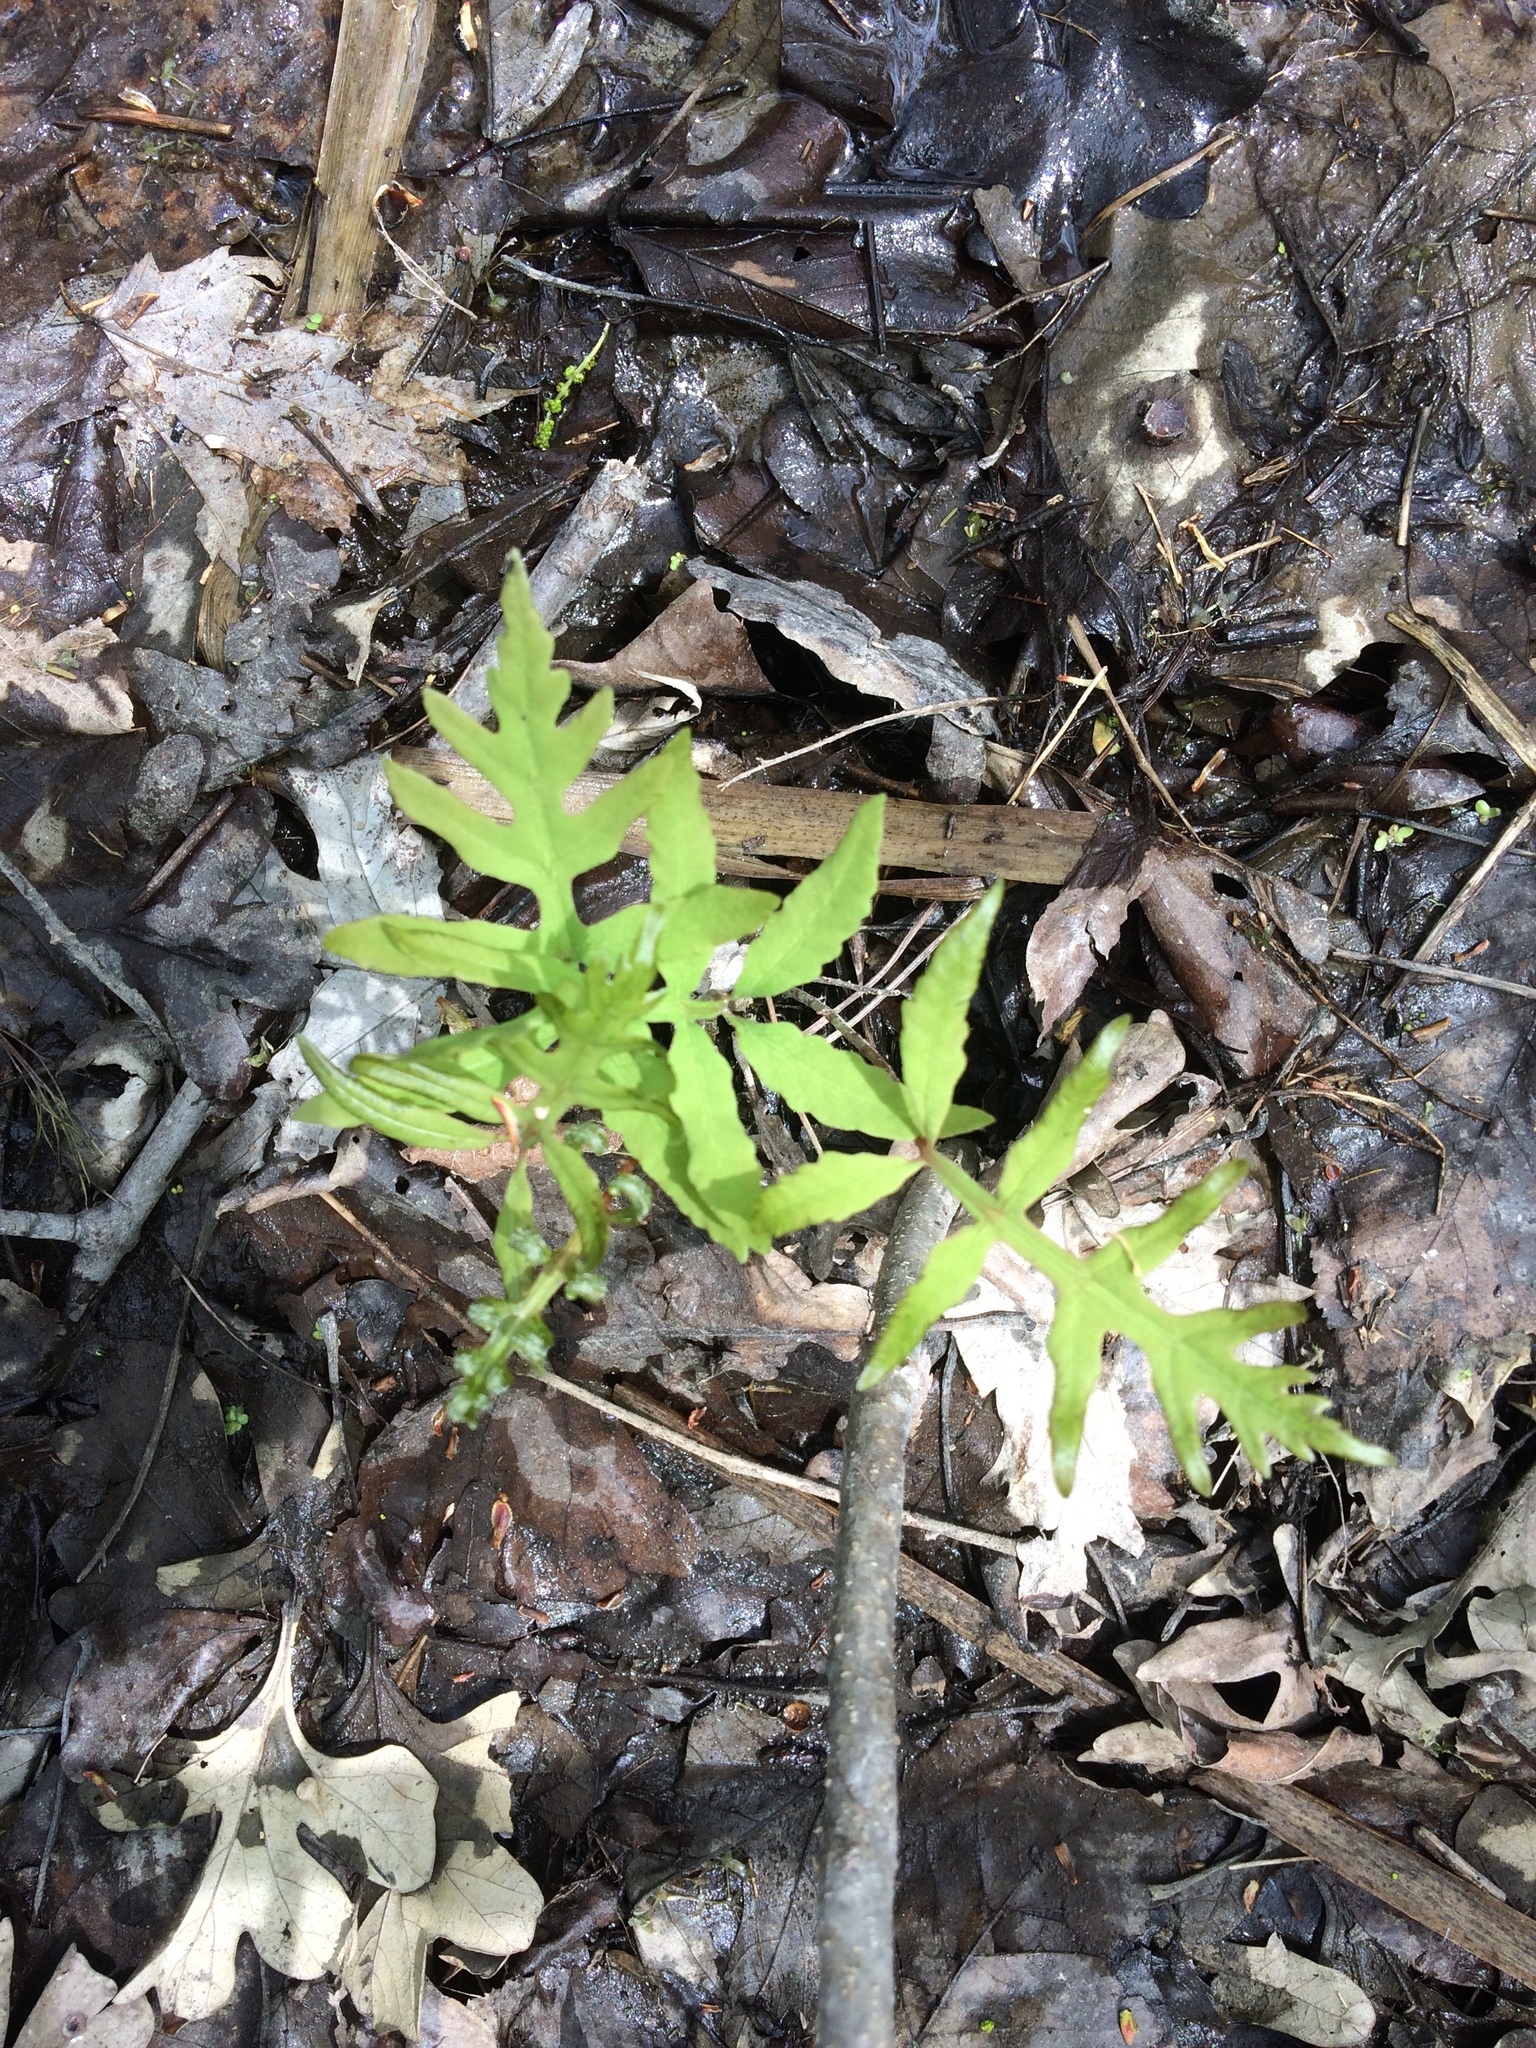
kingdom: Plantae
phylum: Tracheophyta
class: Polypodiopsida
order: Polypodiales
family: Onocleaceae
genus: Onoclea
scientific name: Onoclea sensibilis
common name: Sensitive fern
